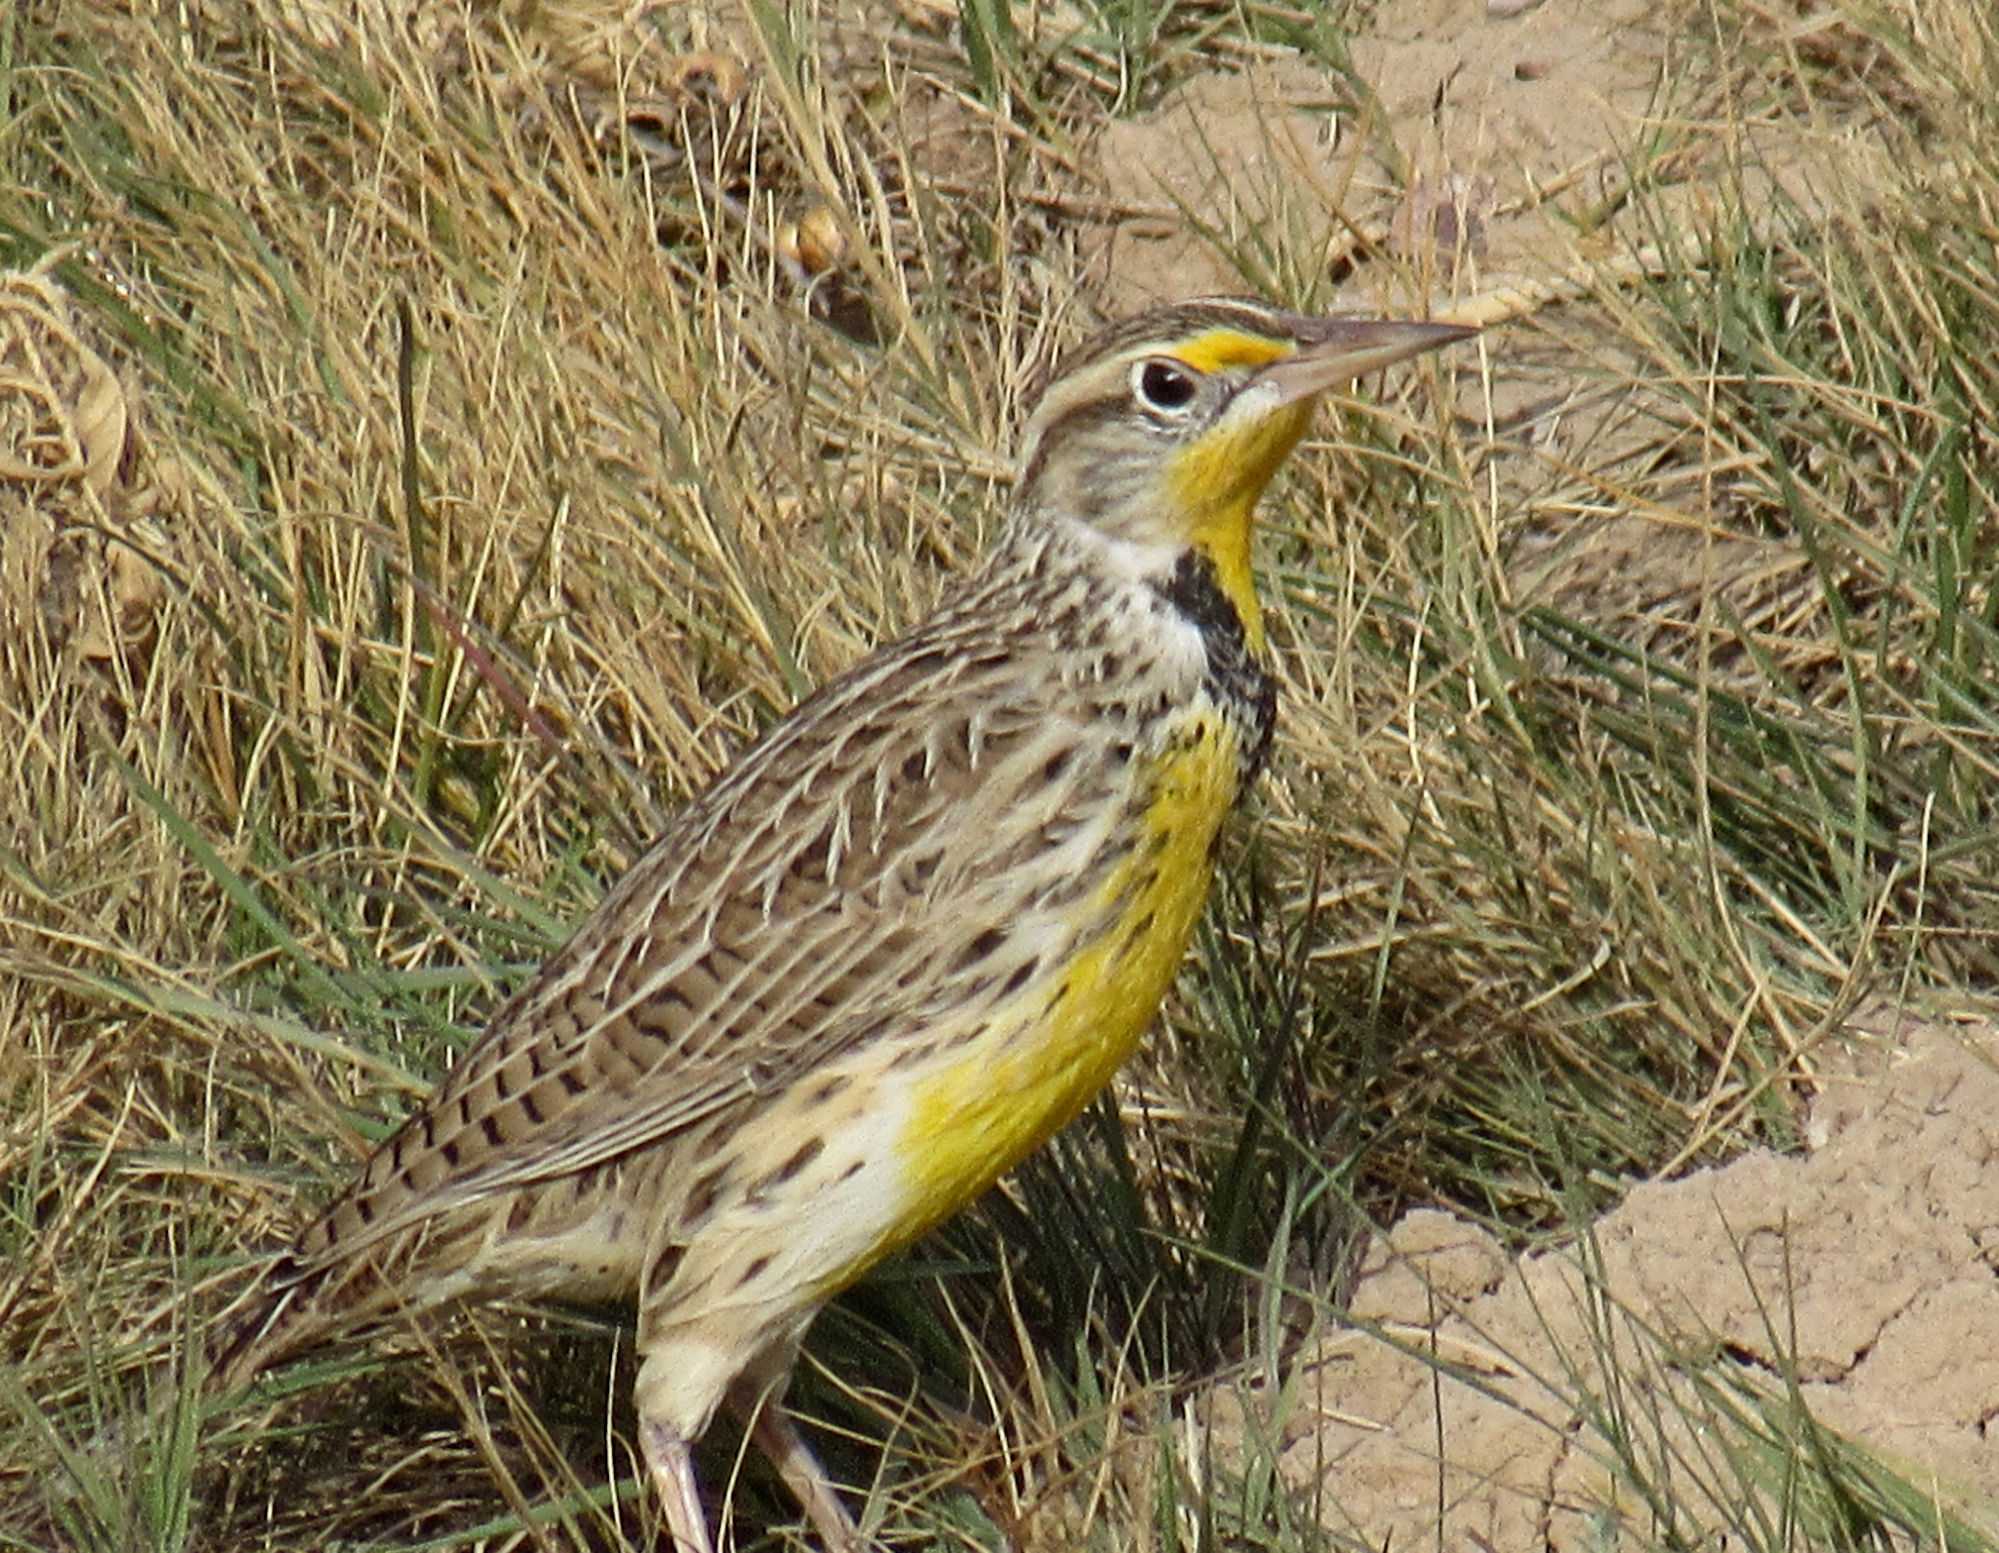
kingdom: Animalia
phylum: Chordata
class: Aves
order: Passeriformes
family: Icteridae
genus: Sturnella
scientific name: Sturnella neglecta
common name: Western meadowlark
